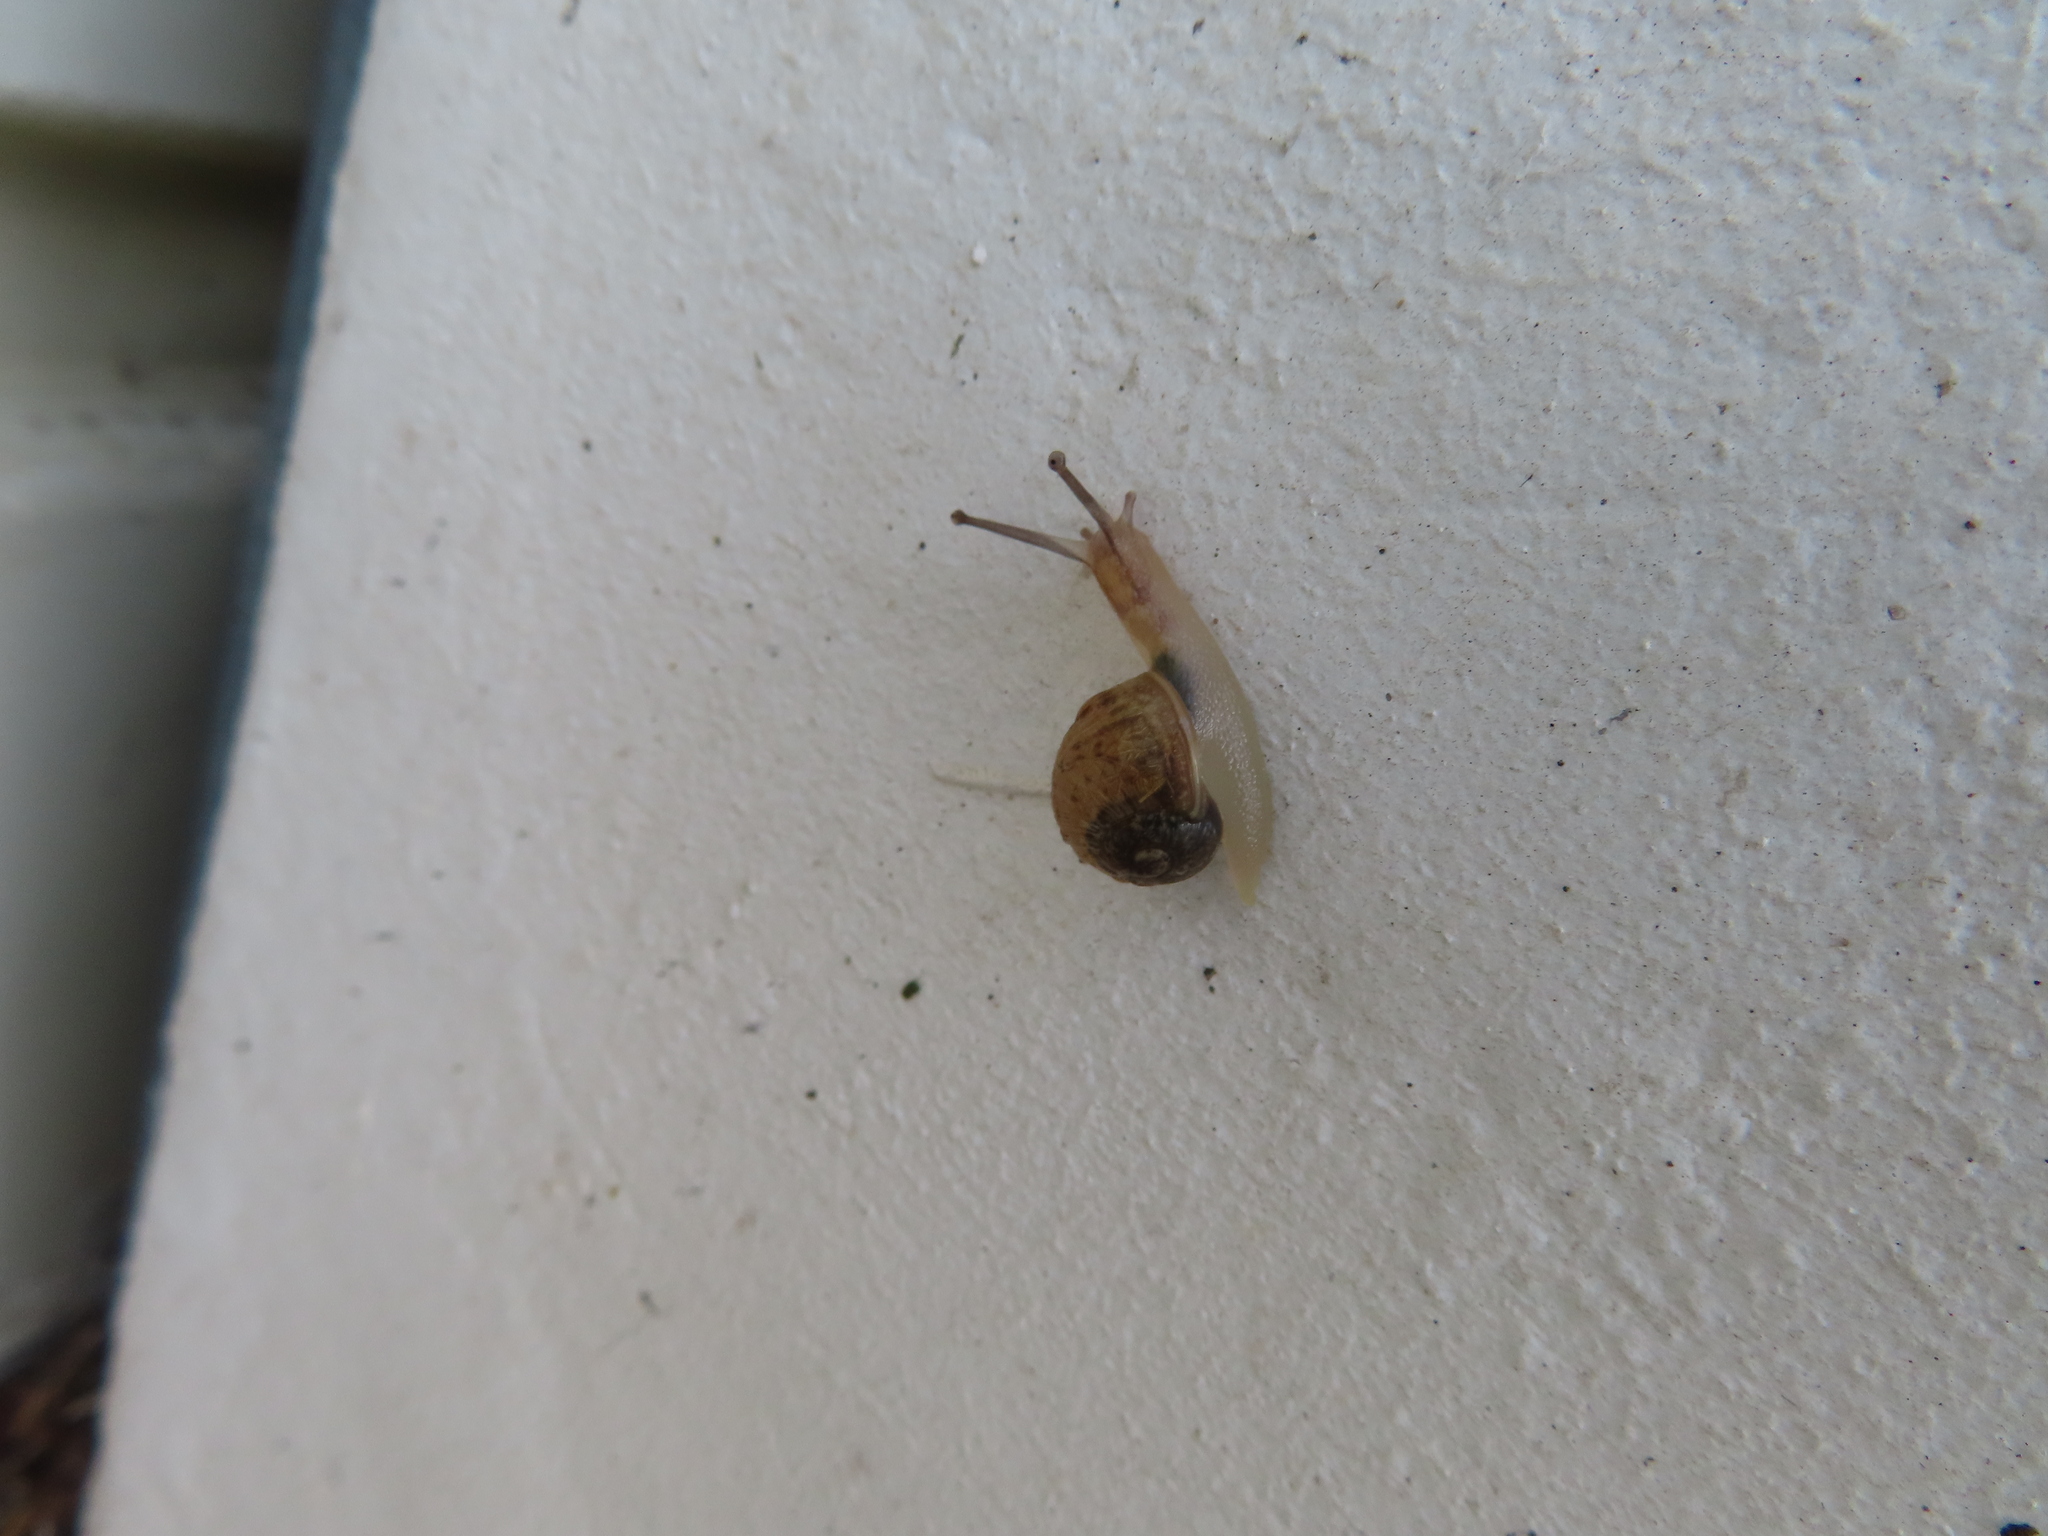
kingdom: Animalia
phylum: Mollusca
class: Gastropoda
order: Stylommatophora
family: Helicidae
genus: Cornu
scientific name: Cornu aspersum
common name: Brown garden snail
